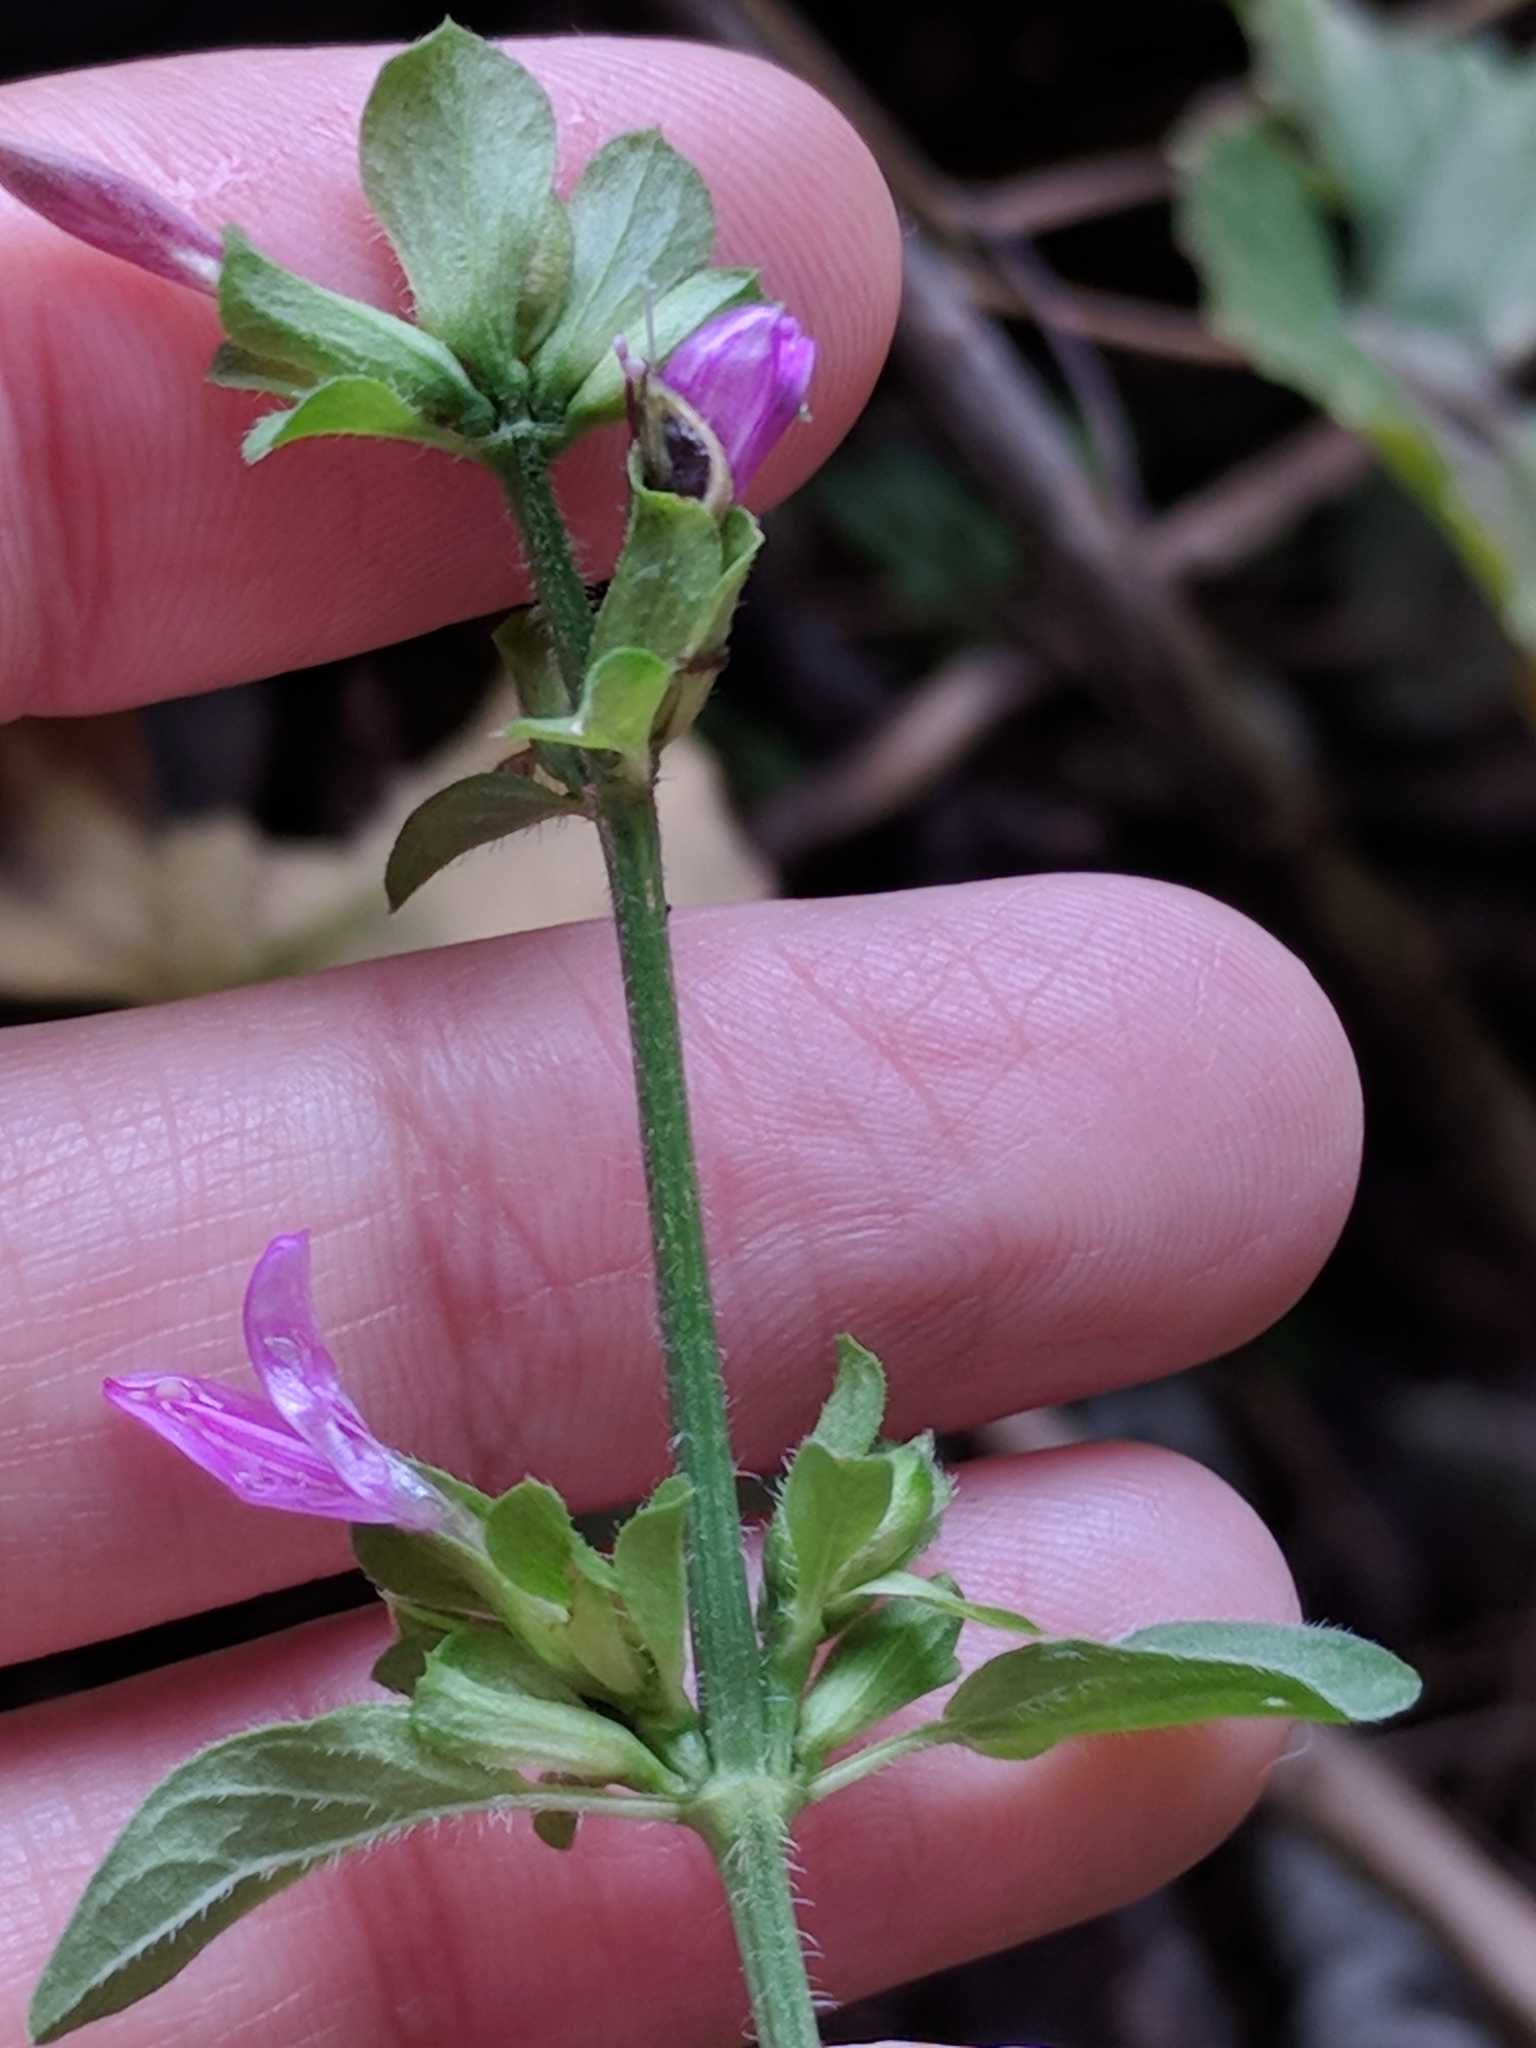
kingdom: Plantae
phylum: Tracheophyta
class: Magnoliopsida
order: Lamiales
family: Acanthaceae
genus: Dicliptera
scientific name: Dicliptera brachiata
